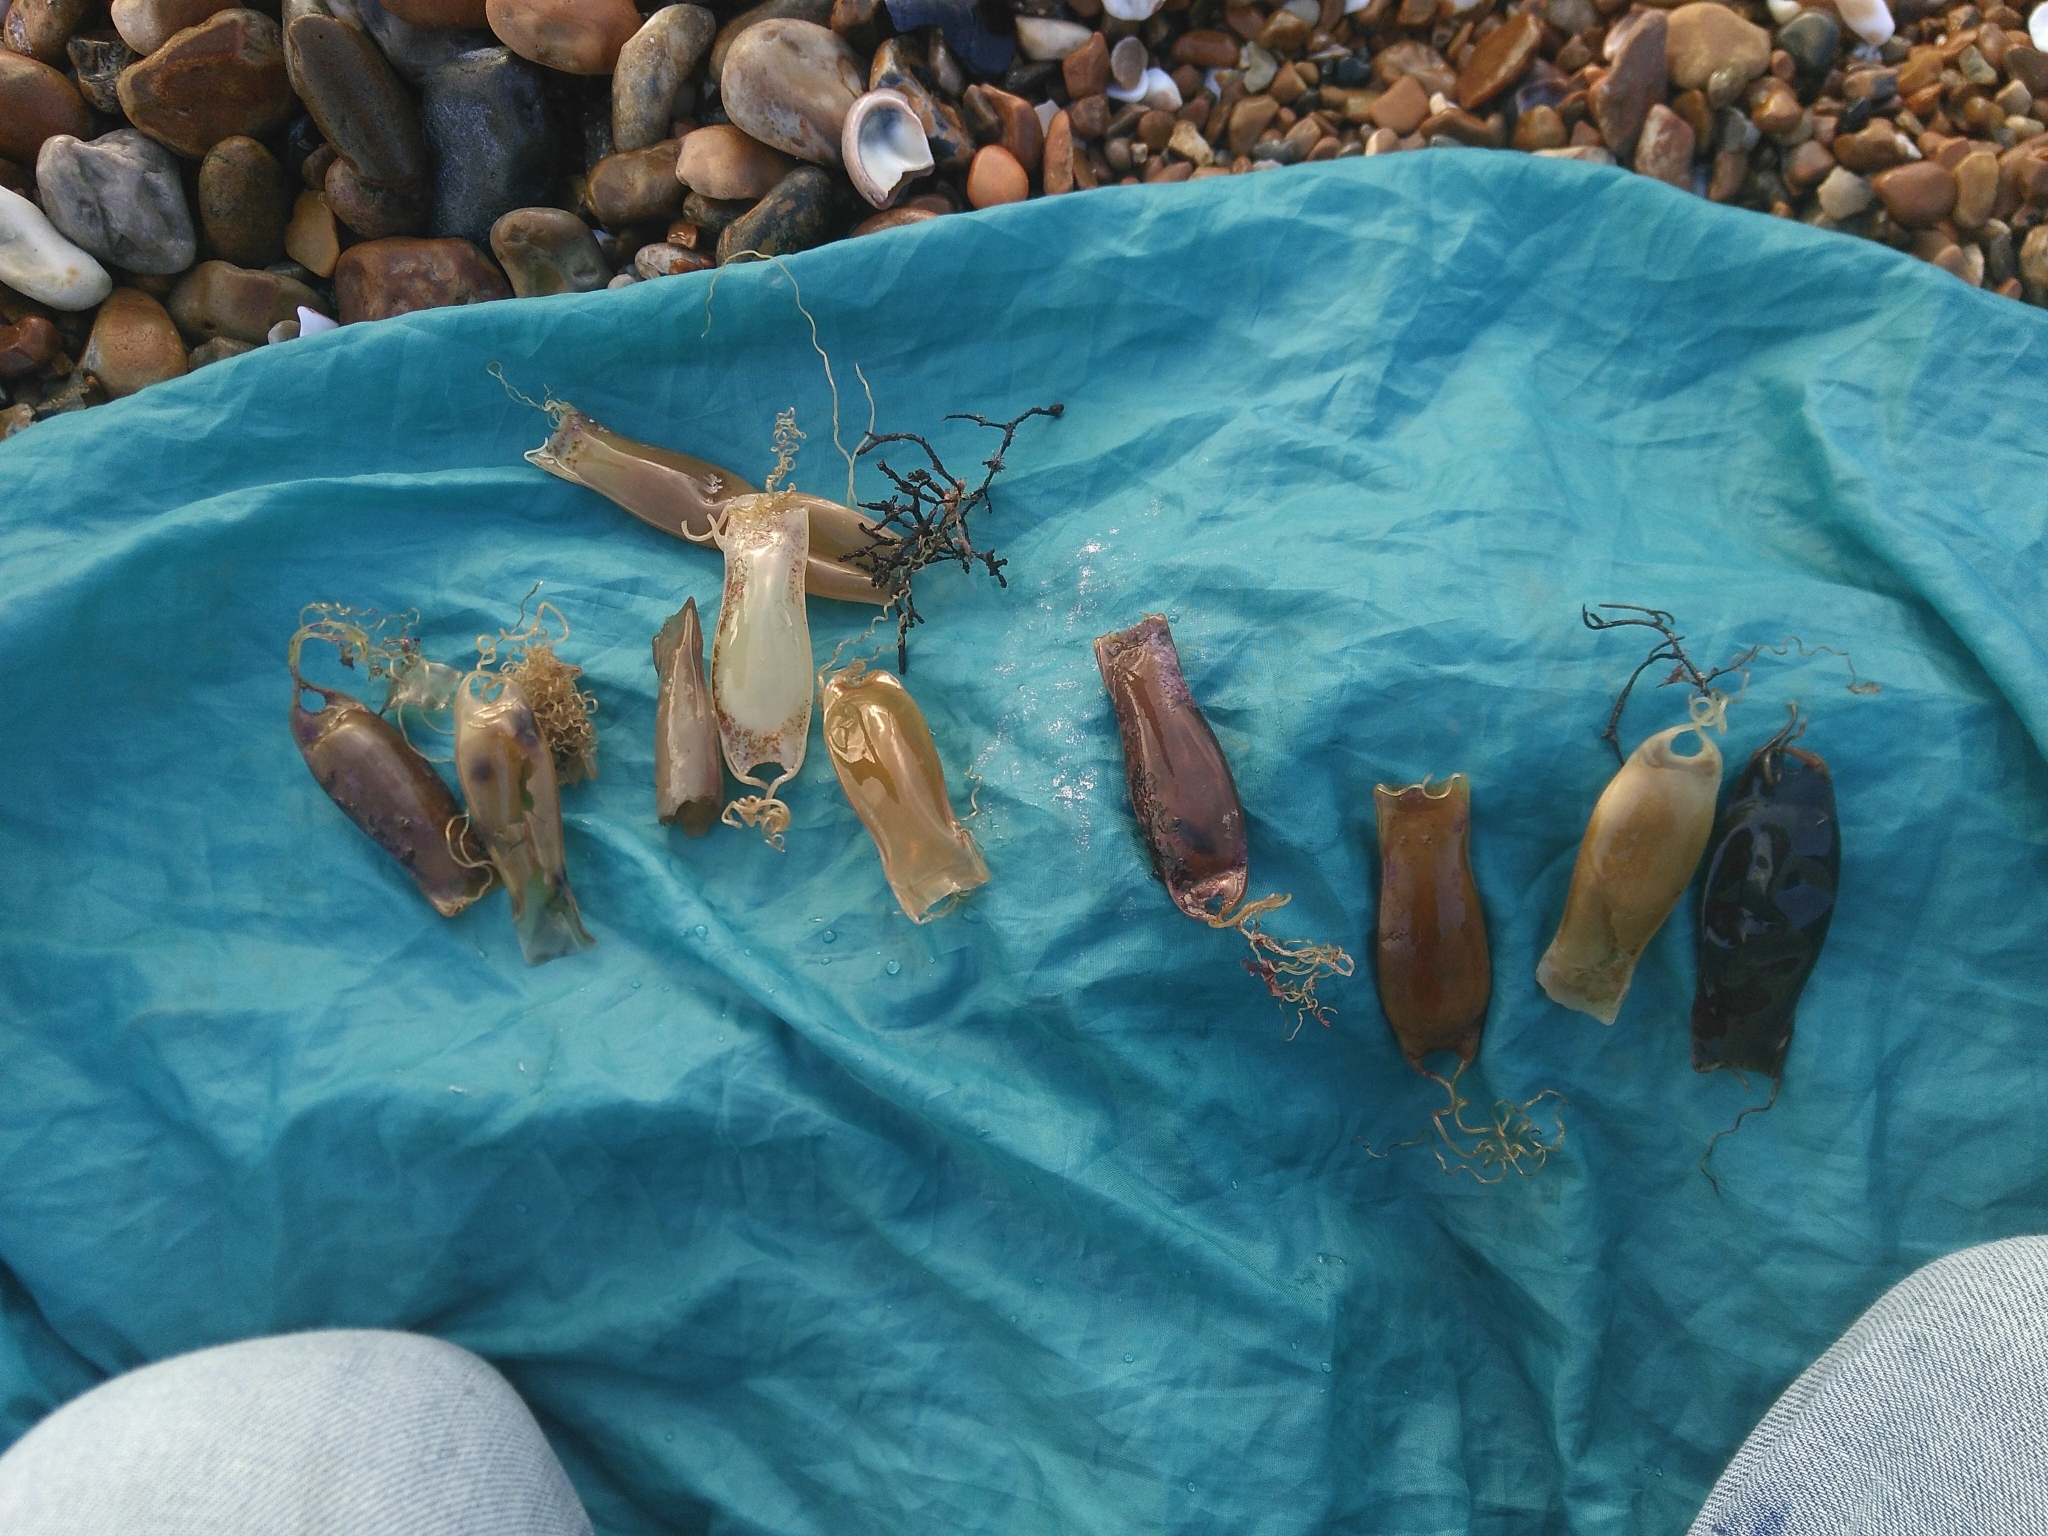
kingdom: Animalia
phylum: Chordata
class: Elasmobranchii
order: Carcharhiniformes
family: Scyliorhinidae
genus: Scyliorhinus
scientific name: Scyliorhinus canicula
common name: Lesser spotted dogfish
